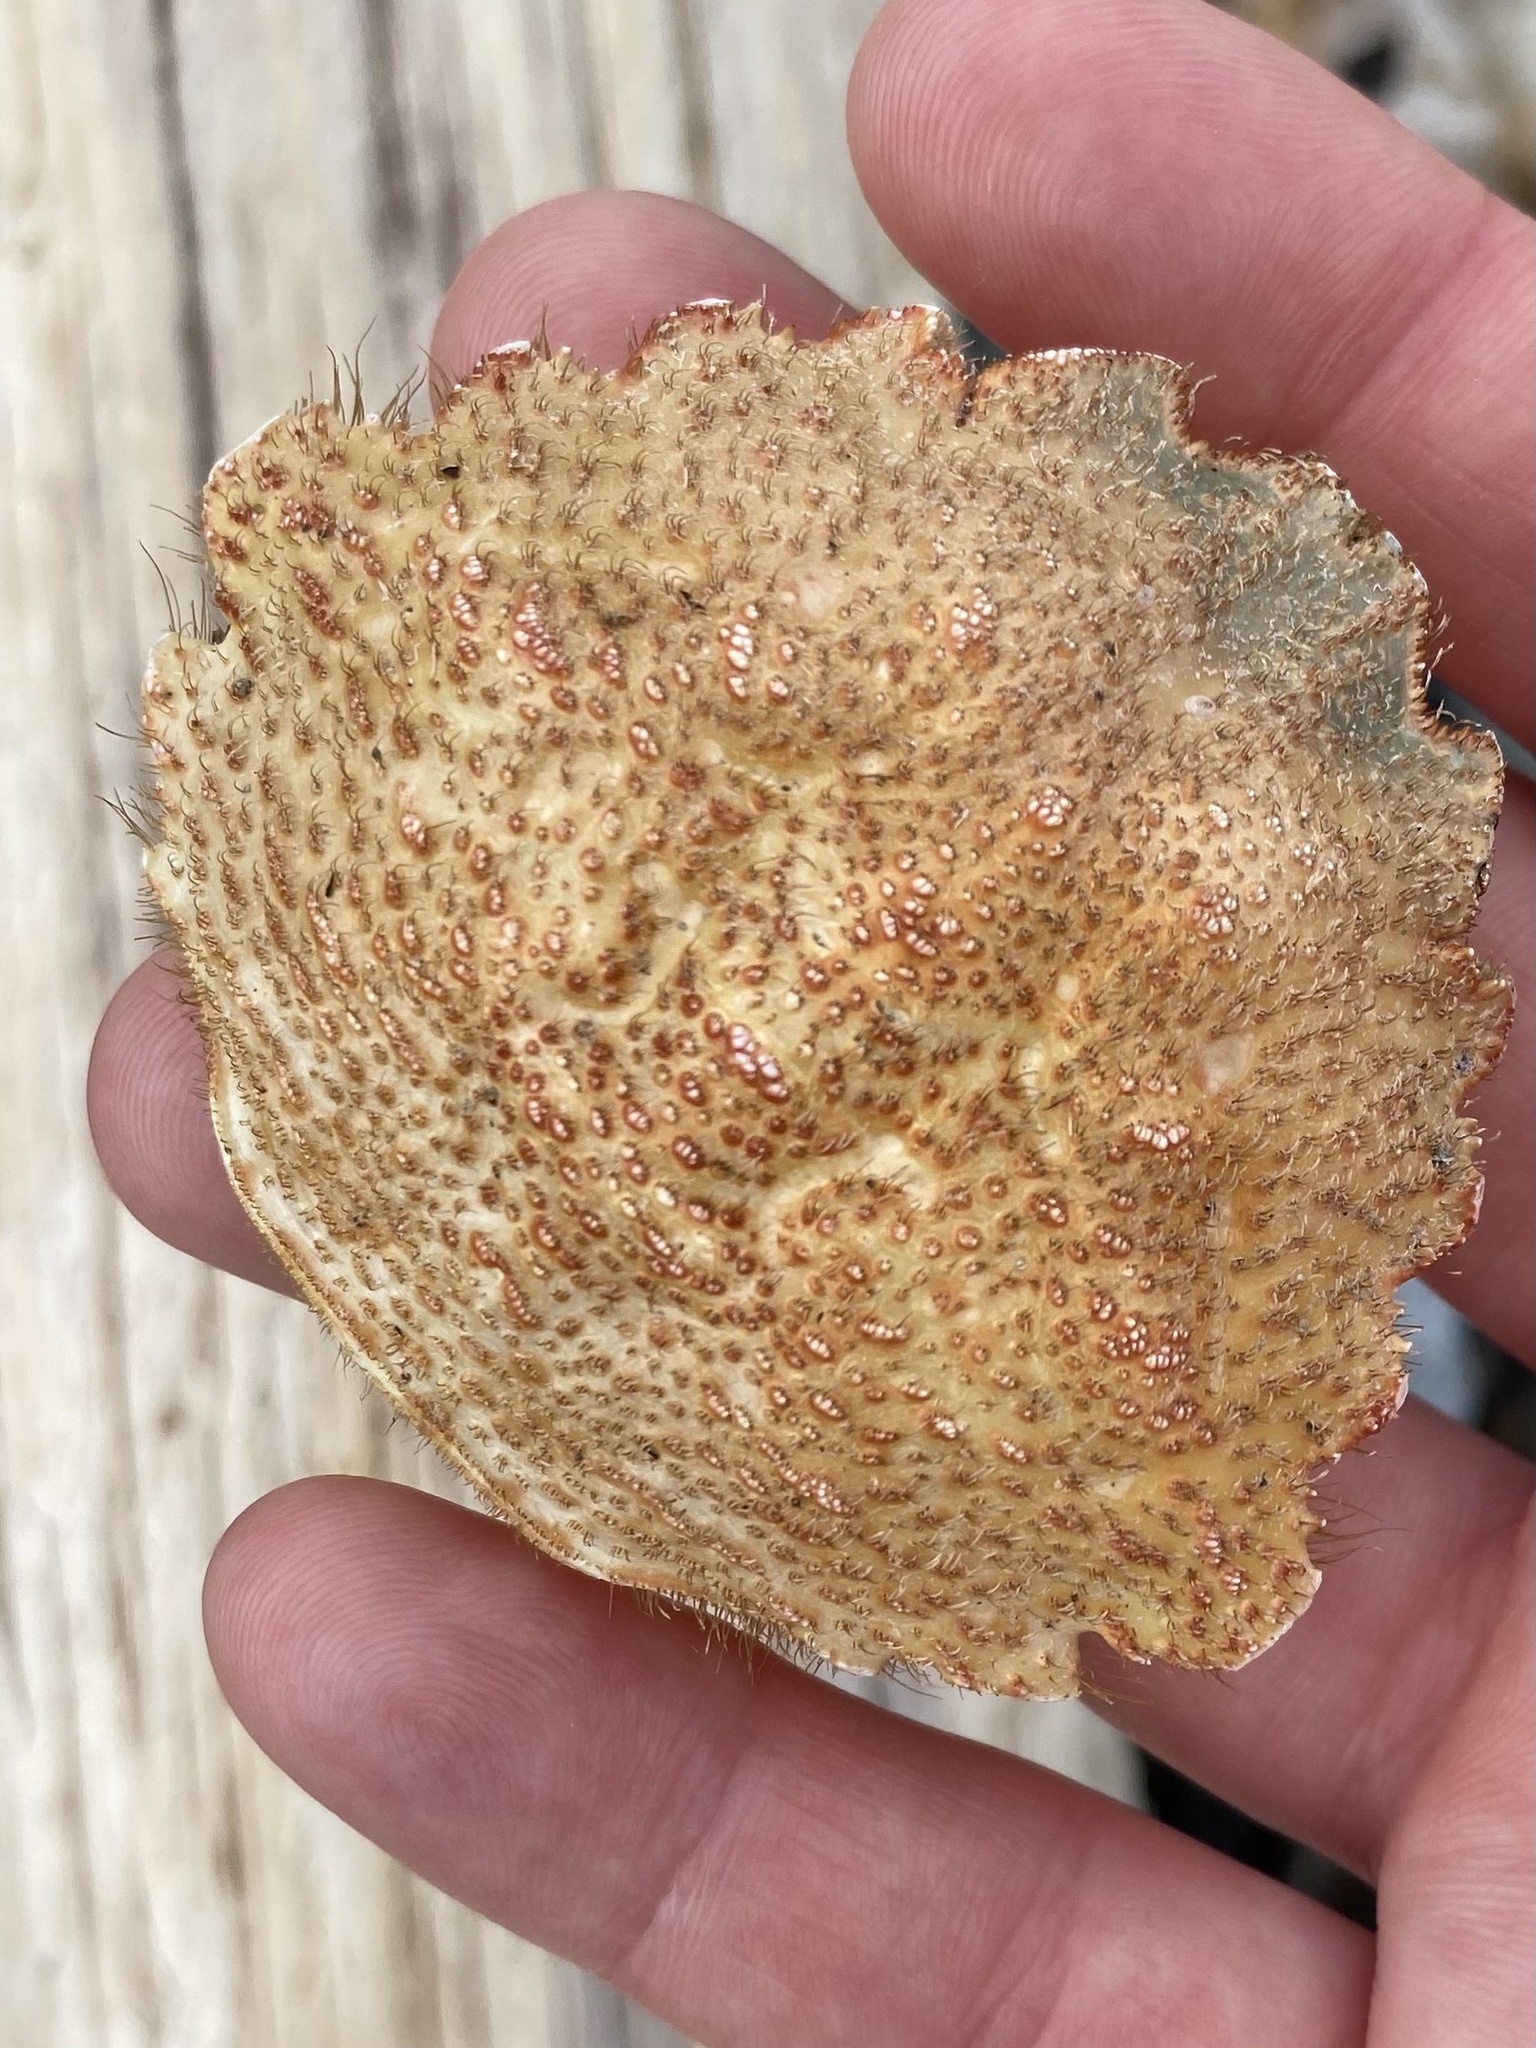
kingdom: Animalia
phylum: Arthropoda
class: Malacostraca
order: Decapoda
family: Cheiragonidae
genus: Telmessus
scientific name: Telmessus cheiragonus
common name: Helmet crab
